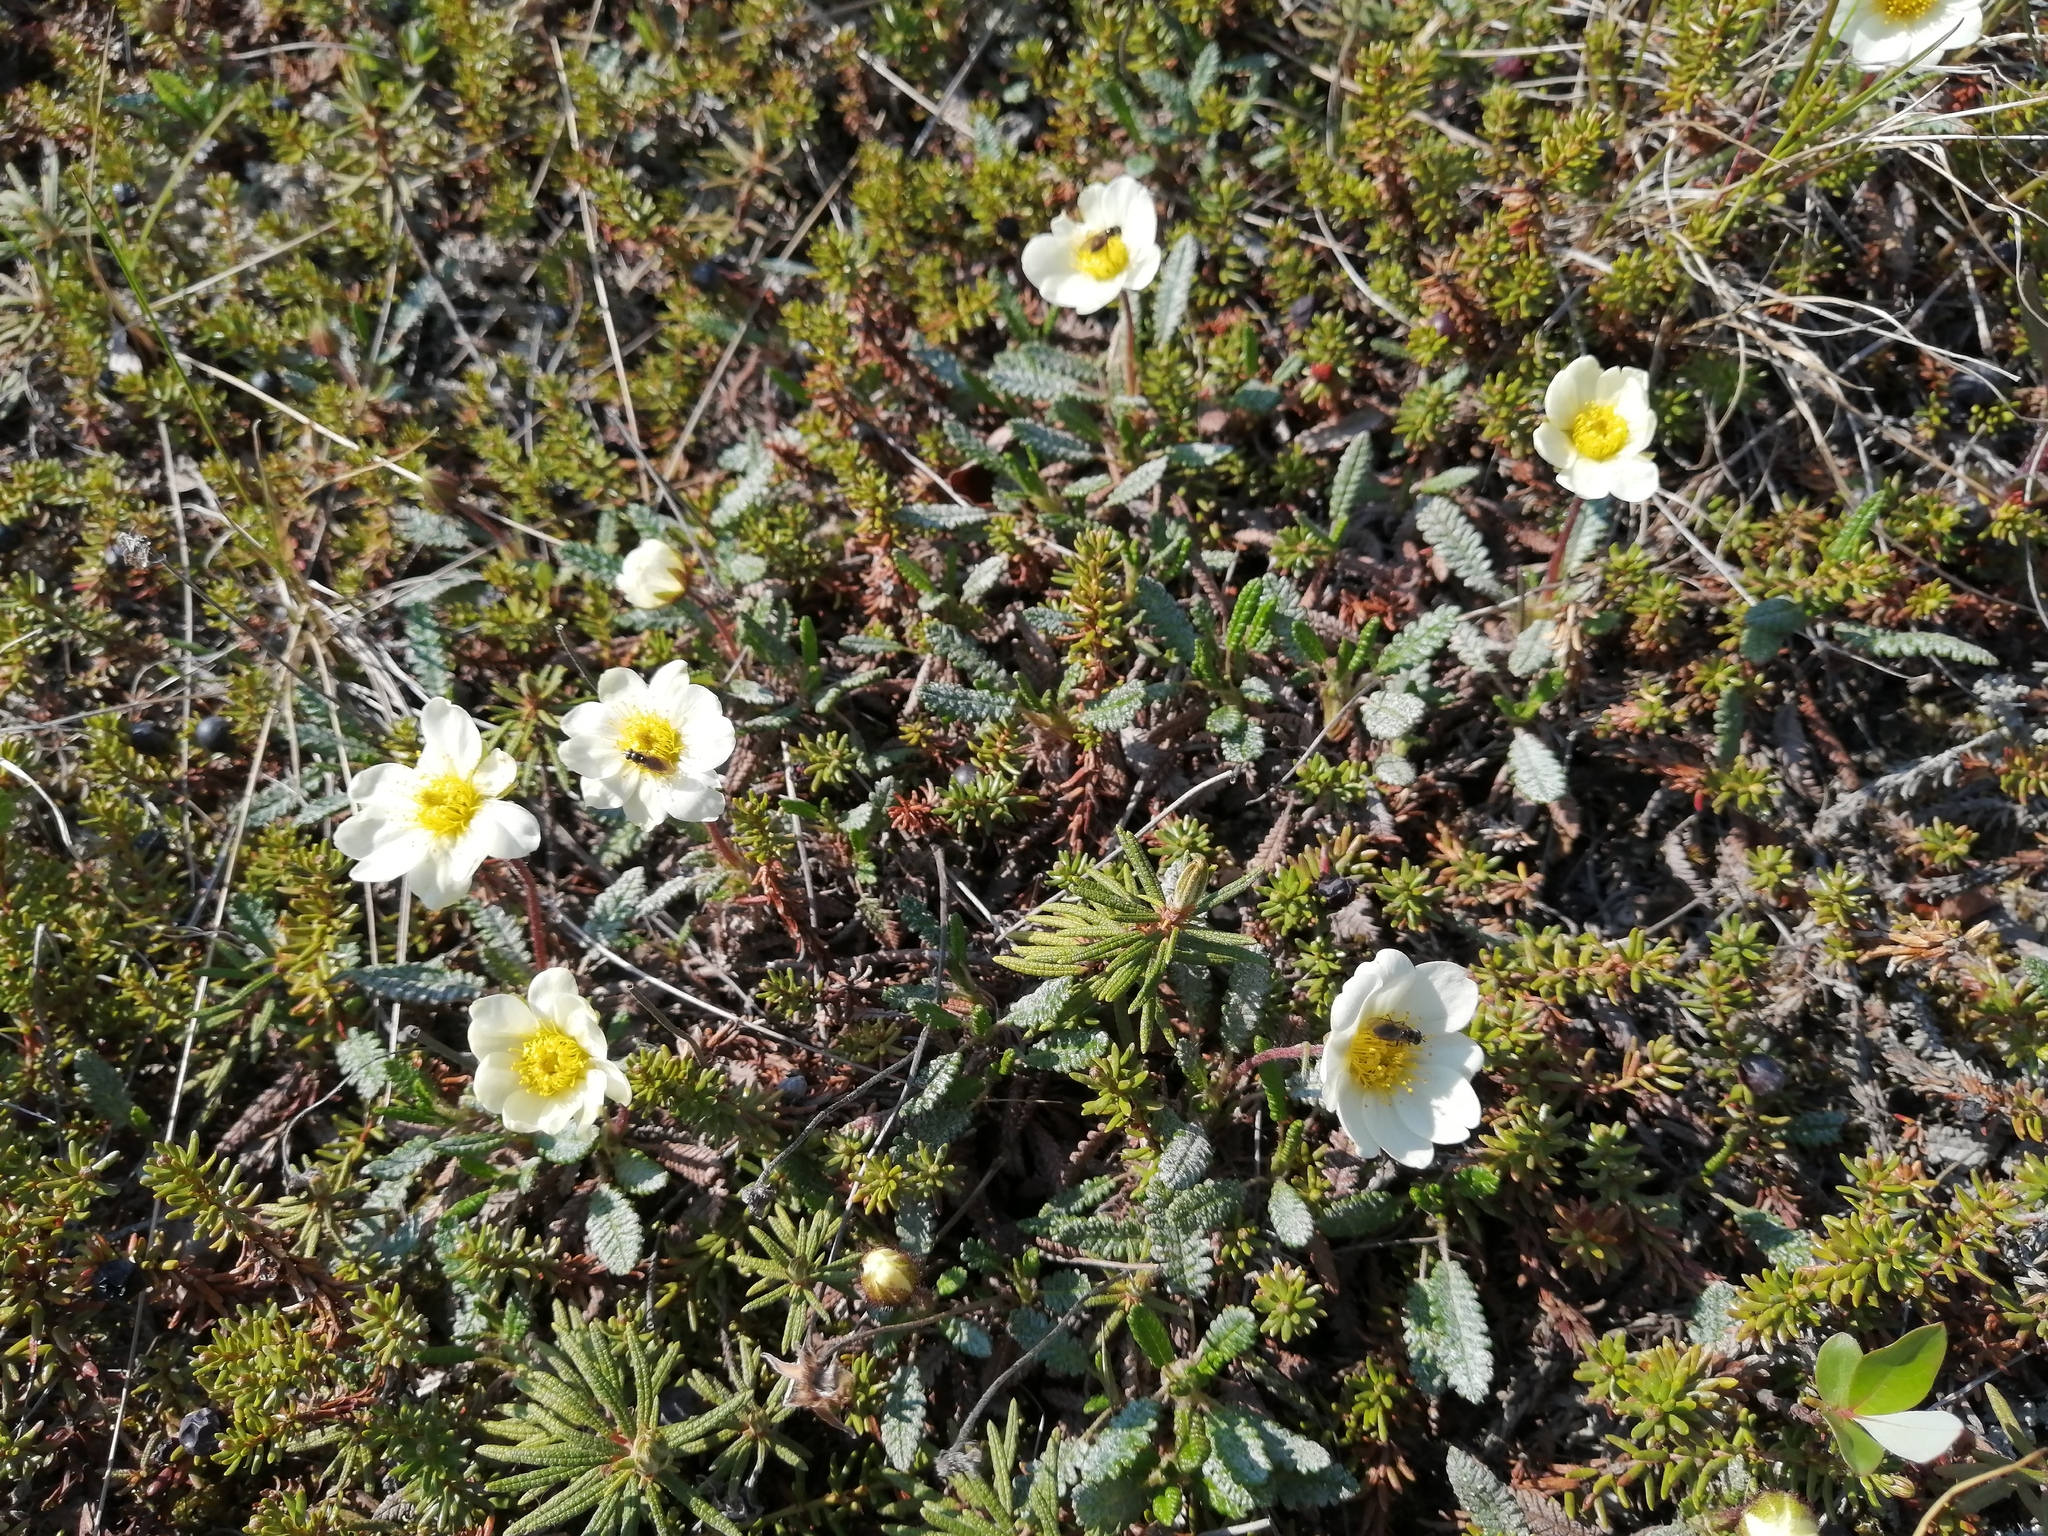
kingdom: Plantae
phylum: Tracheophyta
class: Magnoliopsida
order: Rosales
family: Rosaceae
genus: Dryas
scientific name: Dryas octopetala
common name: Eight-petal mountain-avens
